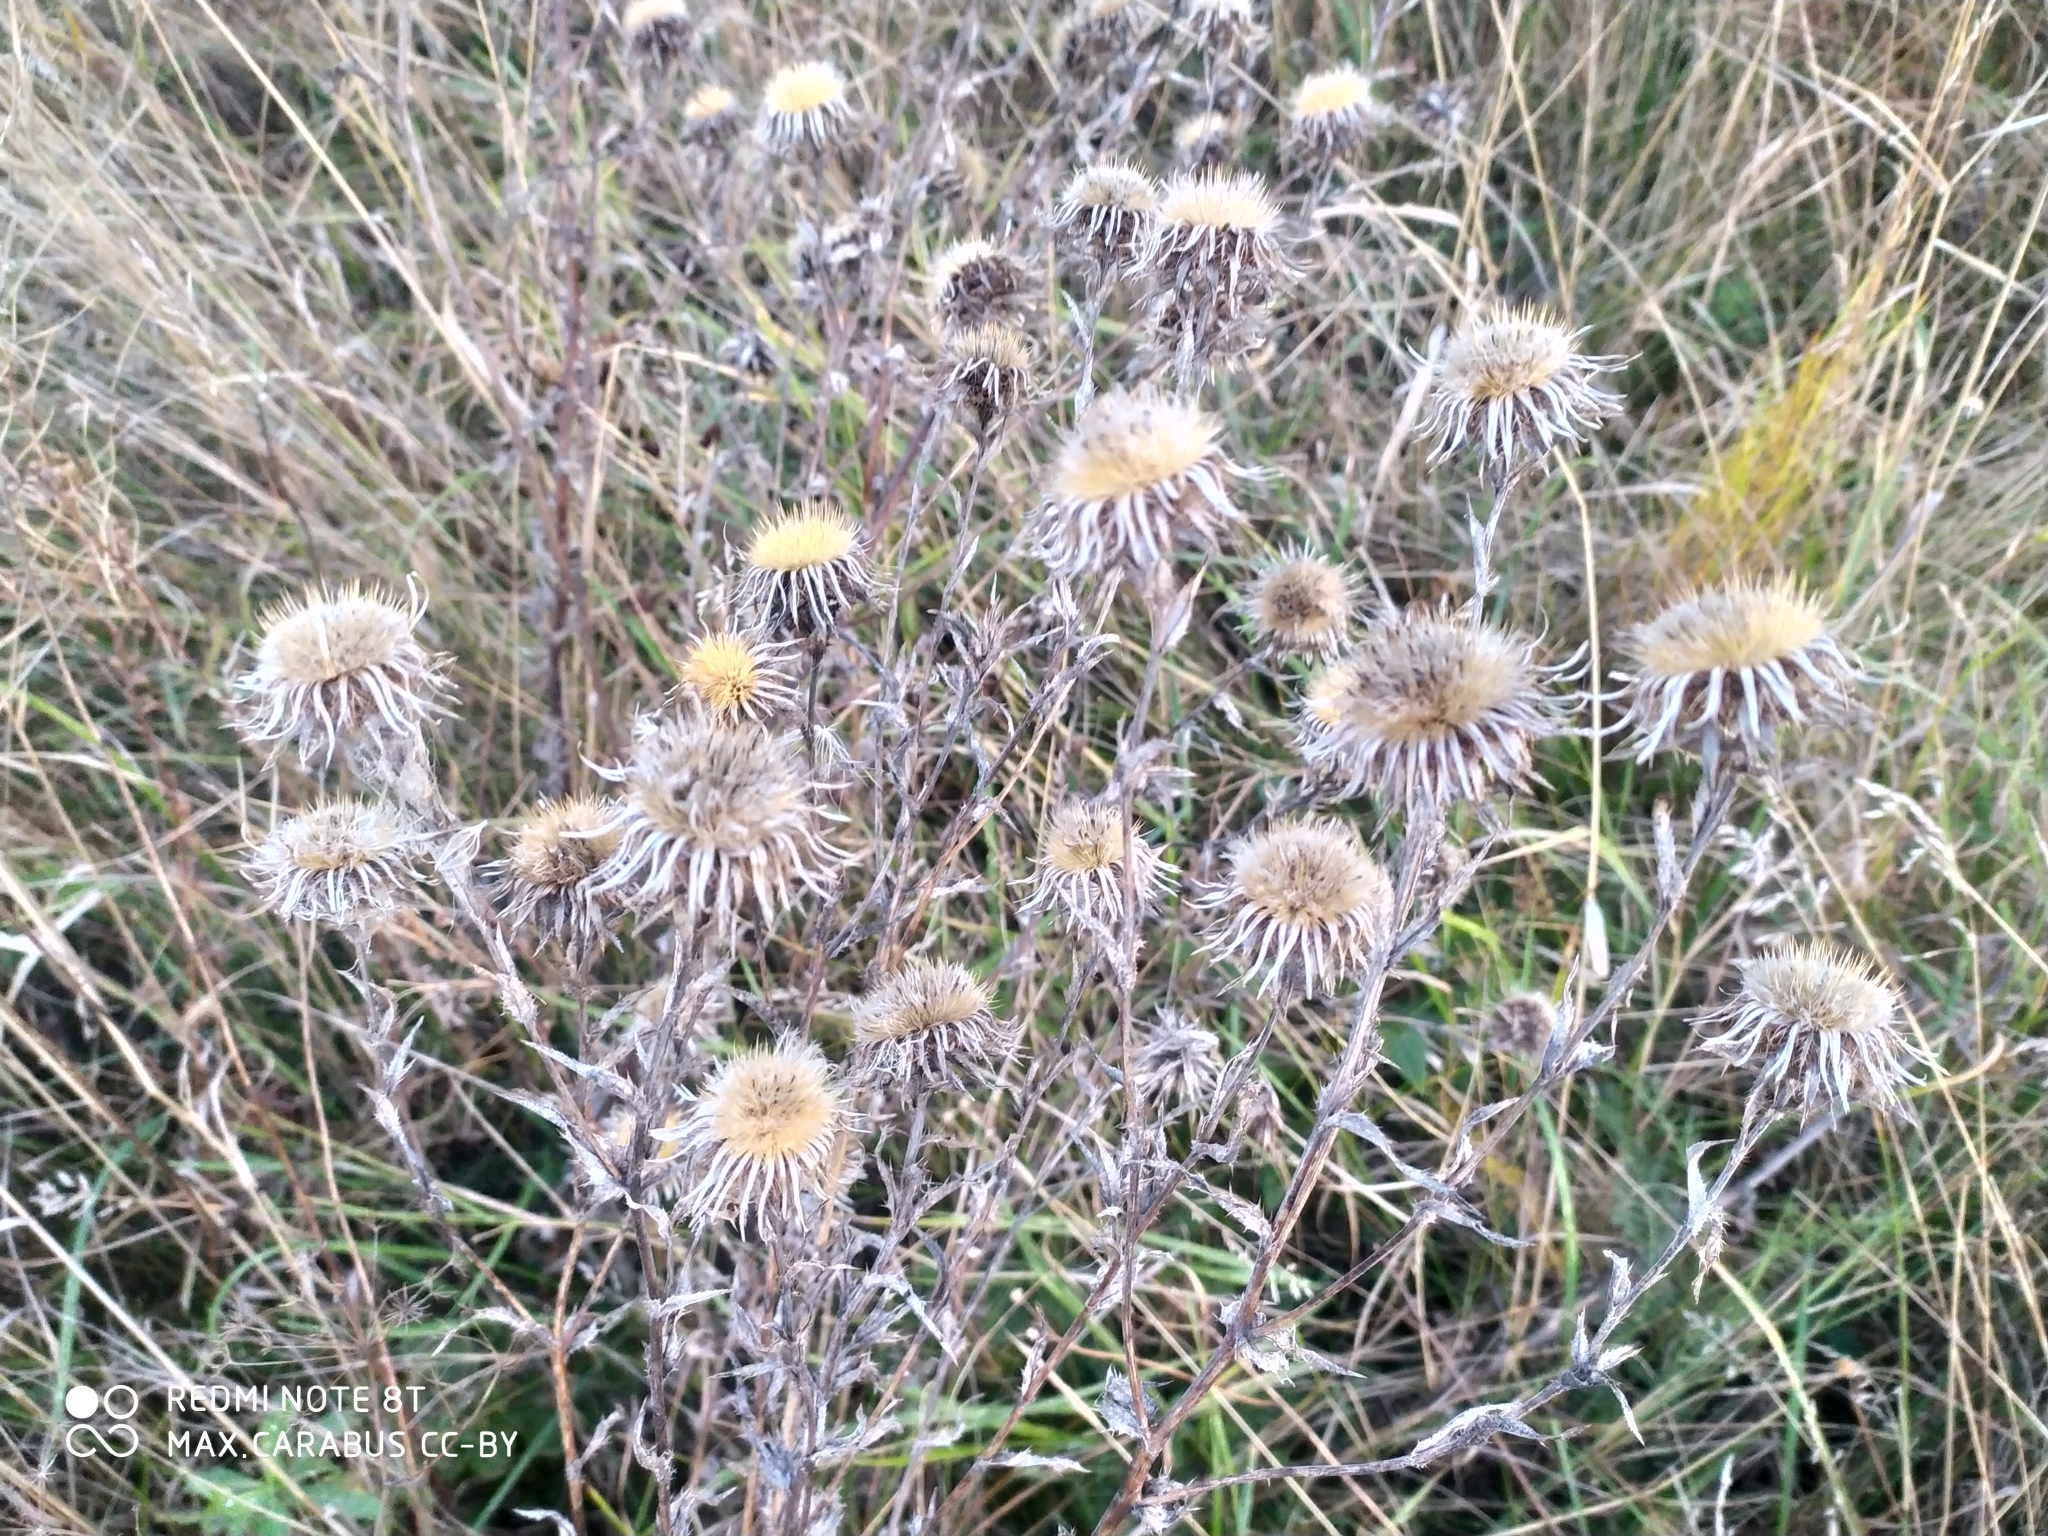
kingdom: Plantae
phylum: Tracheophyta
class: Magnoliopsida
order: Asterales
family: Asteraceae
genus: Carlina
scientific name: Carlina biebersteinii
